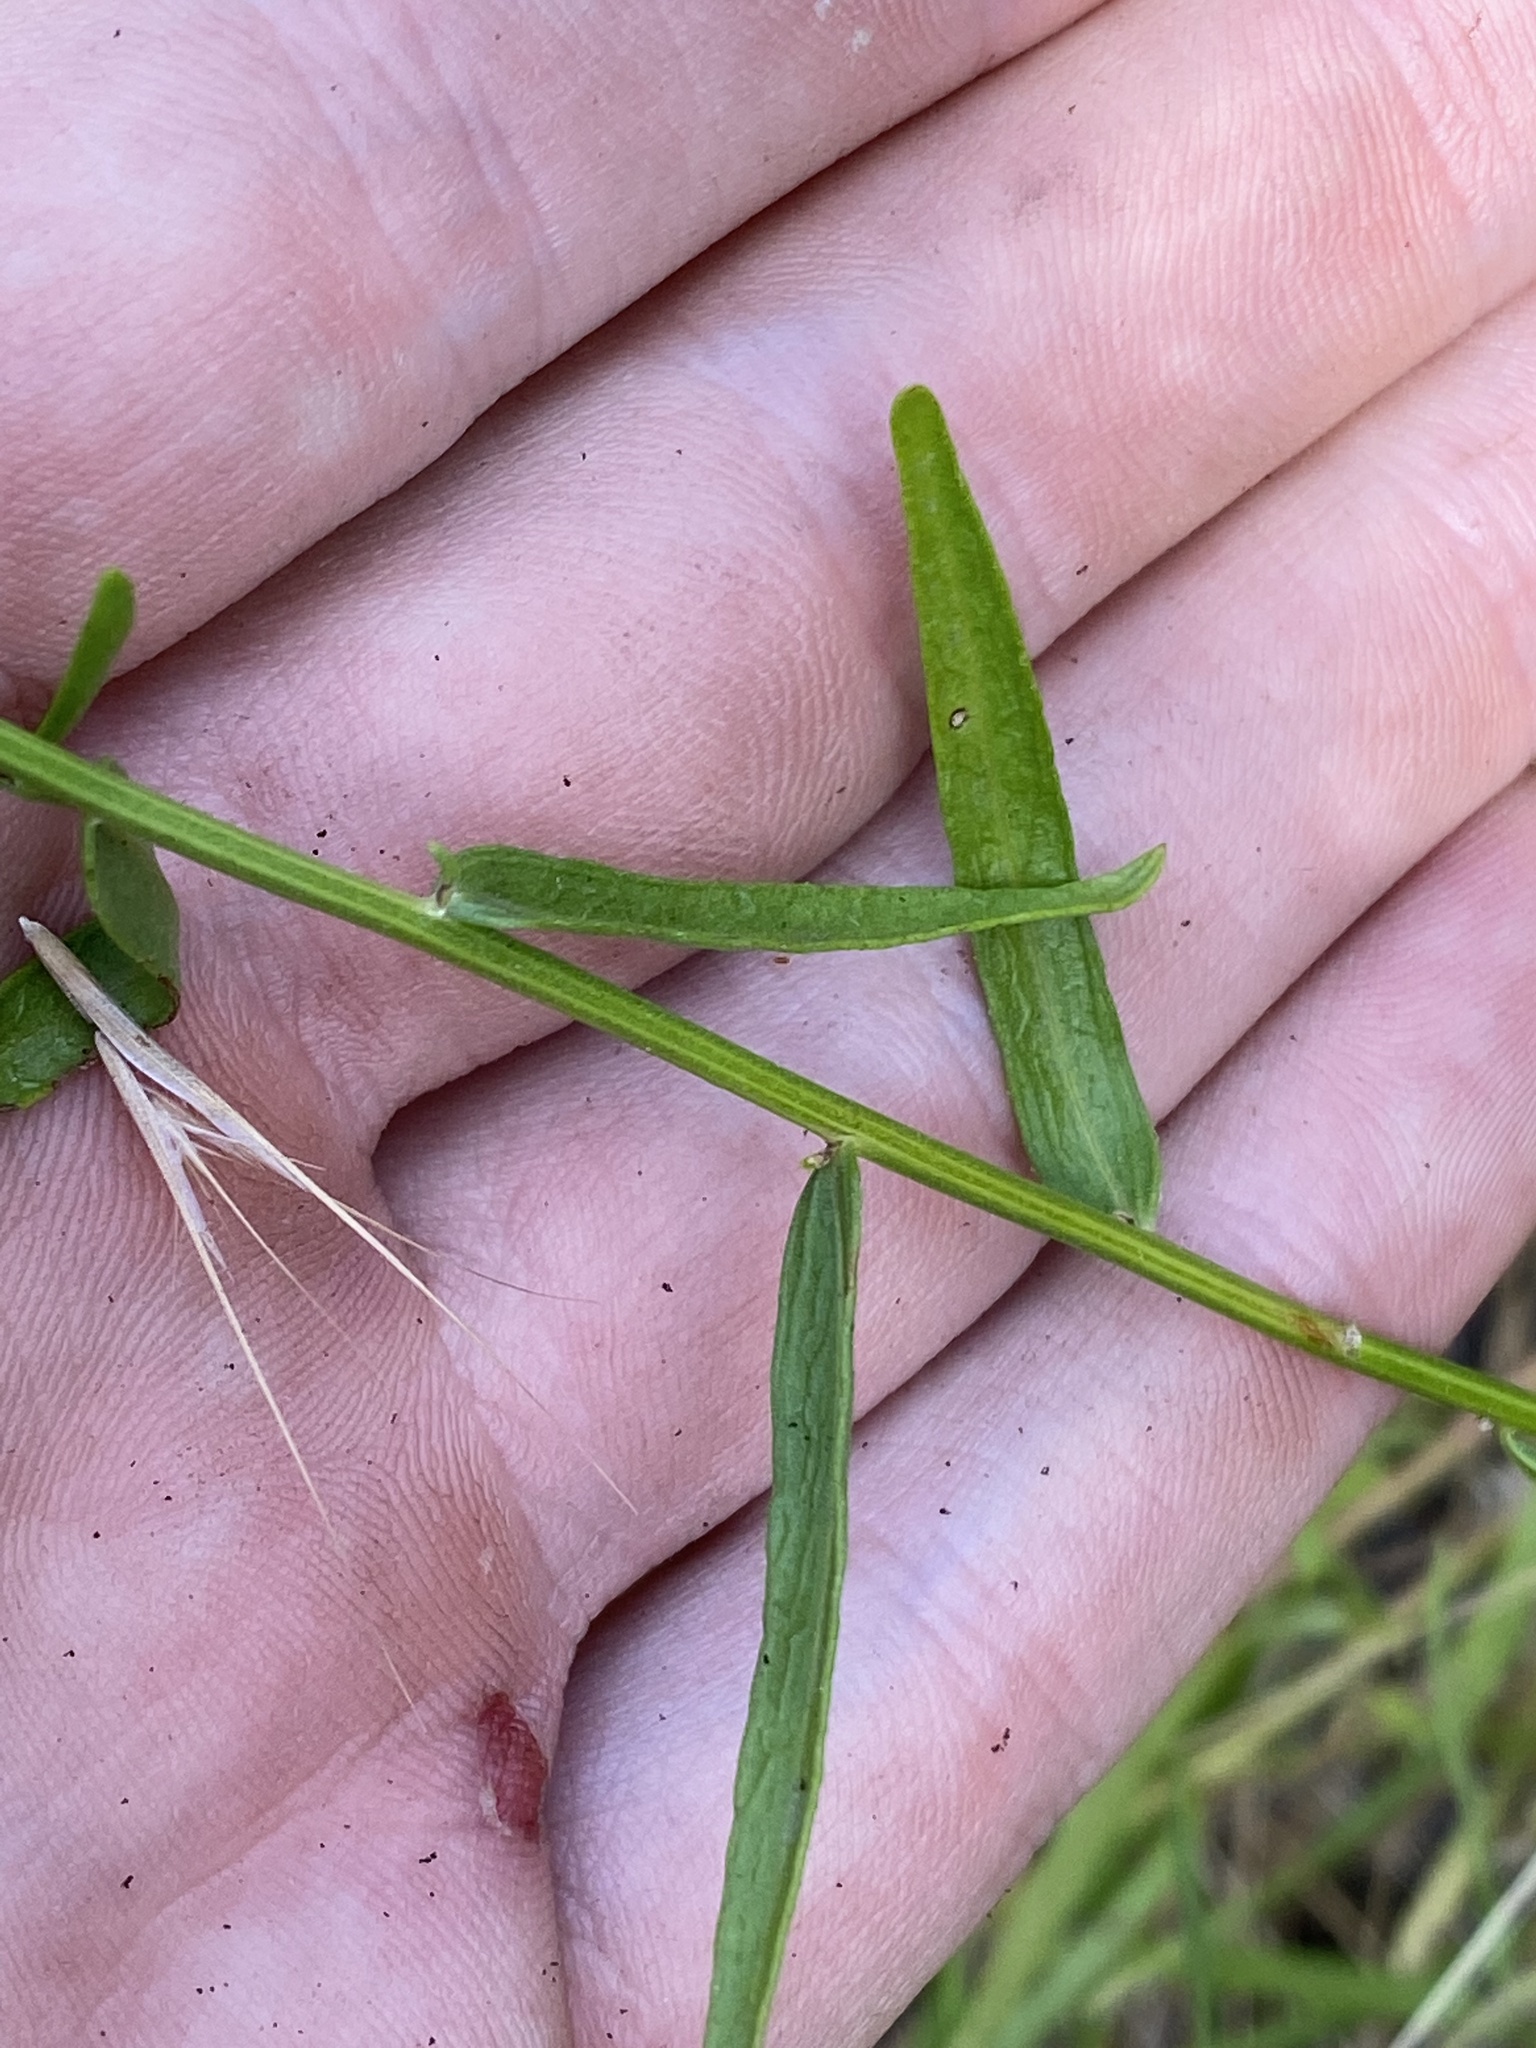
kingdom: Plantae
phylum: Tracheophyta
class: Magnoliopsida
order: Asterales
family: Asteraceae
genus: Erigeron
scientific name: Erigeron inornatus
